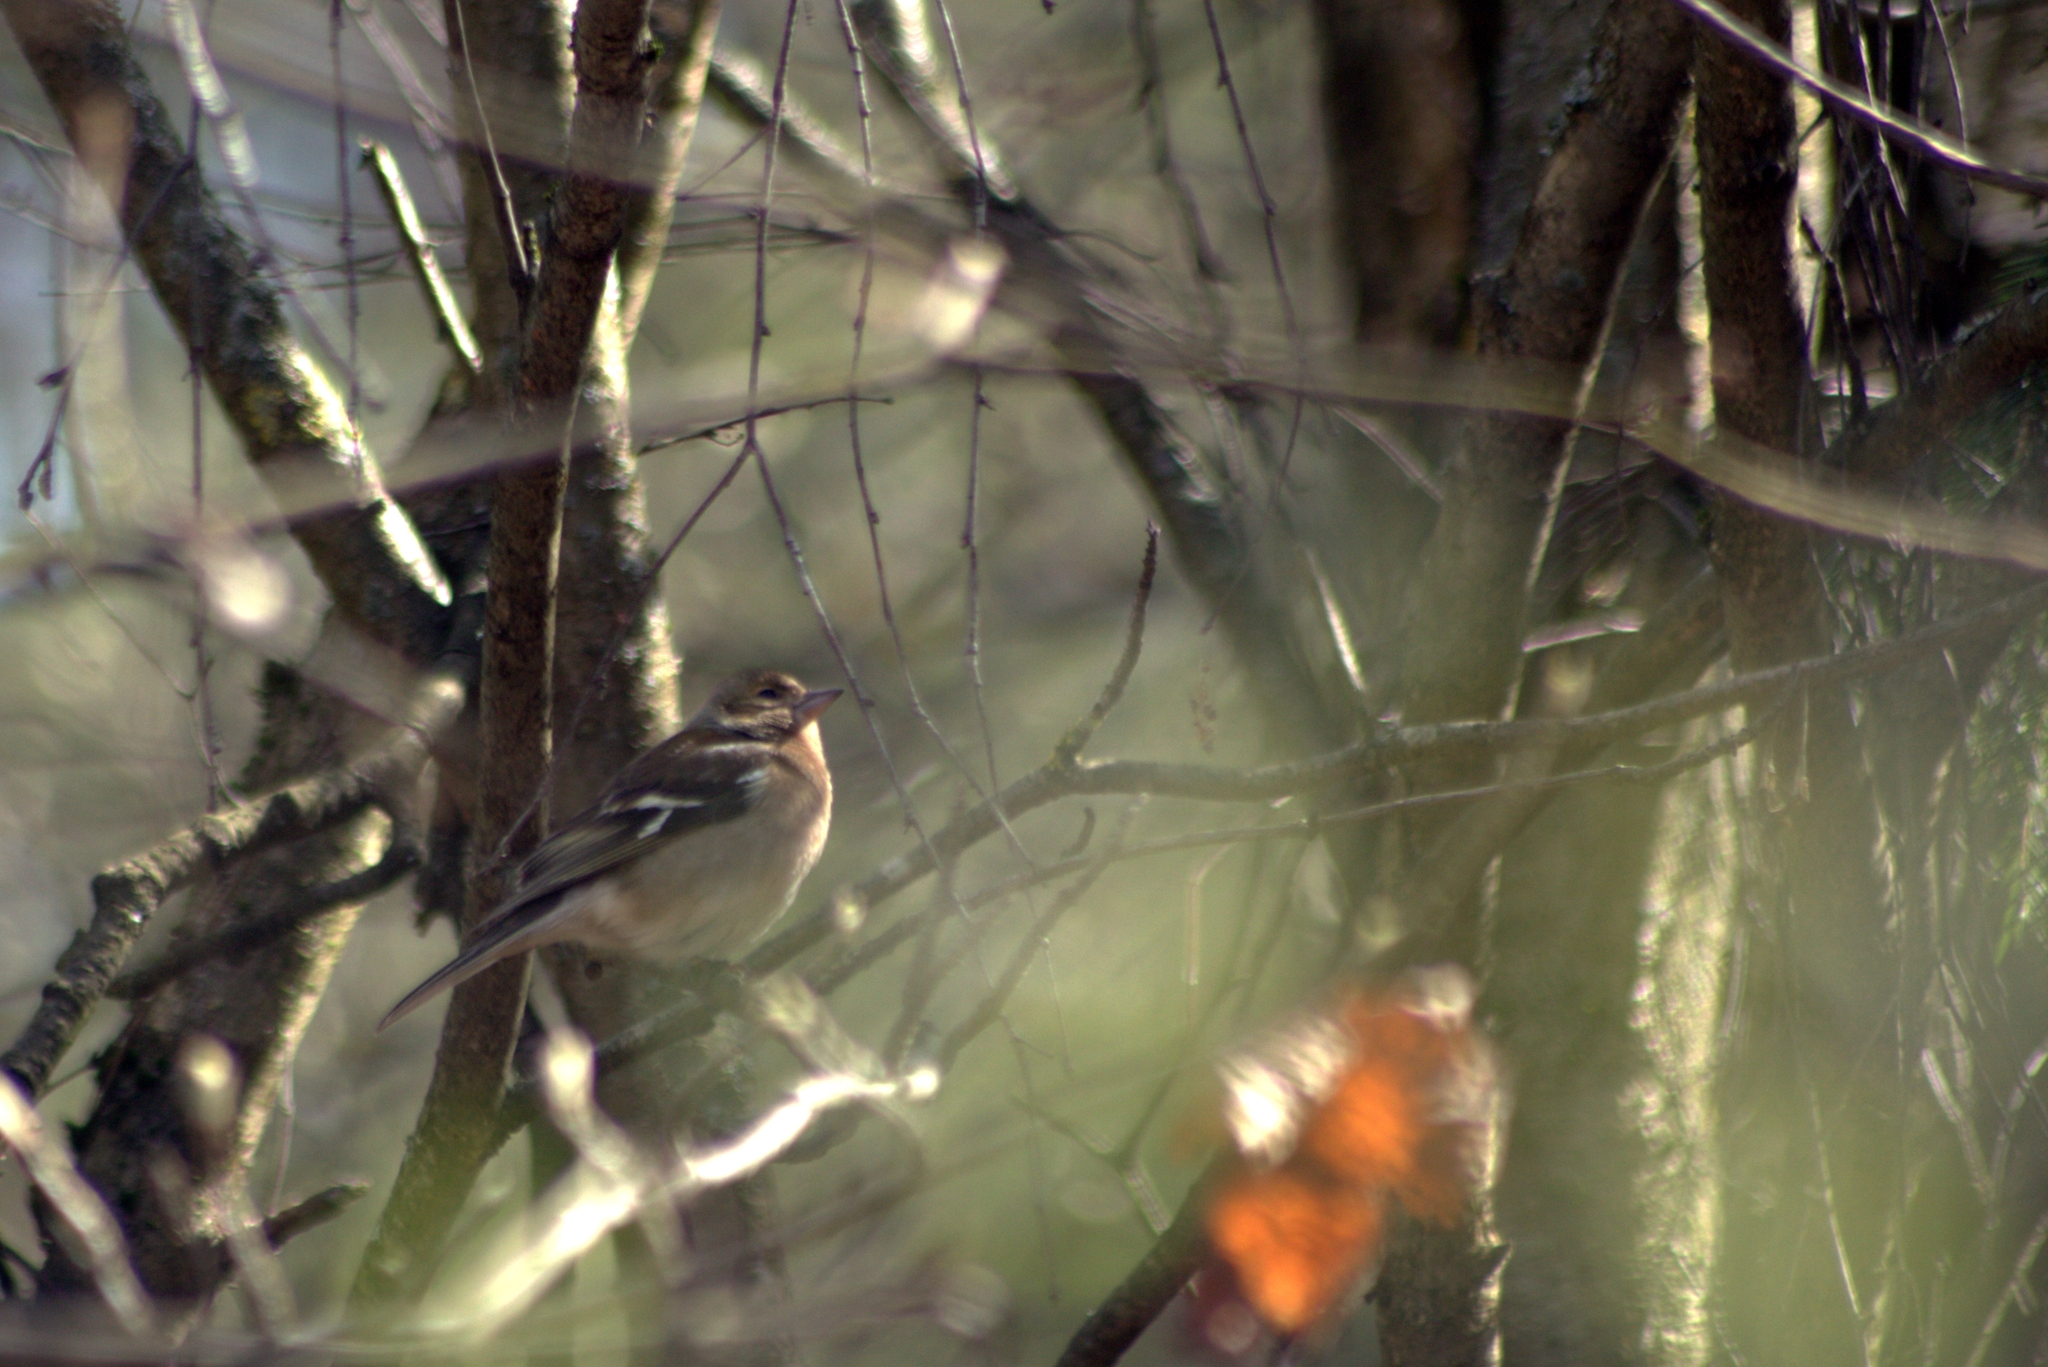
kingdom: Animalia
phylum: Chordata
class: Aves
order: Passeriformes
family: Fringillidae
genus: Fringilla
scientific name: Fringilla coelebs
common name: Common chaffinch
